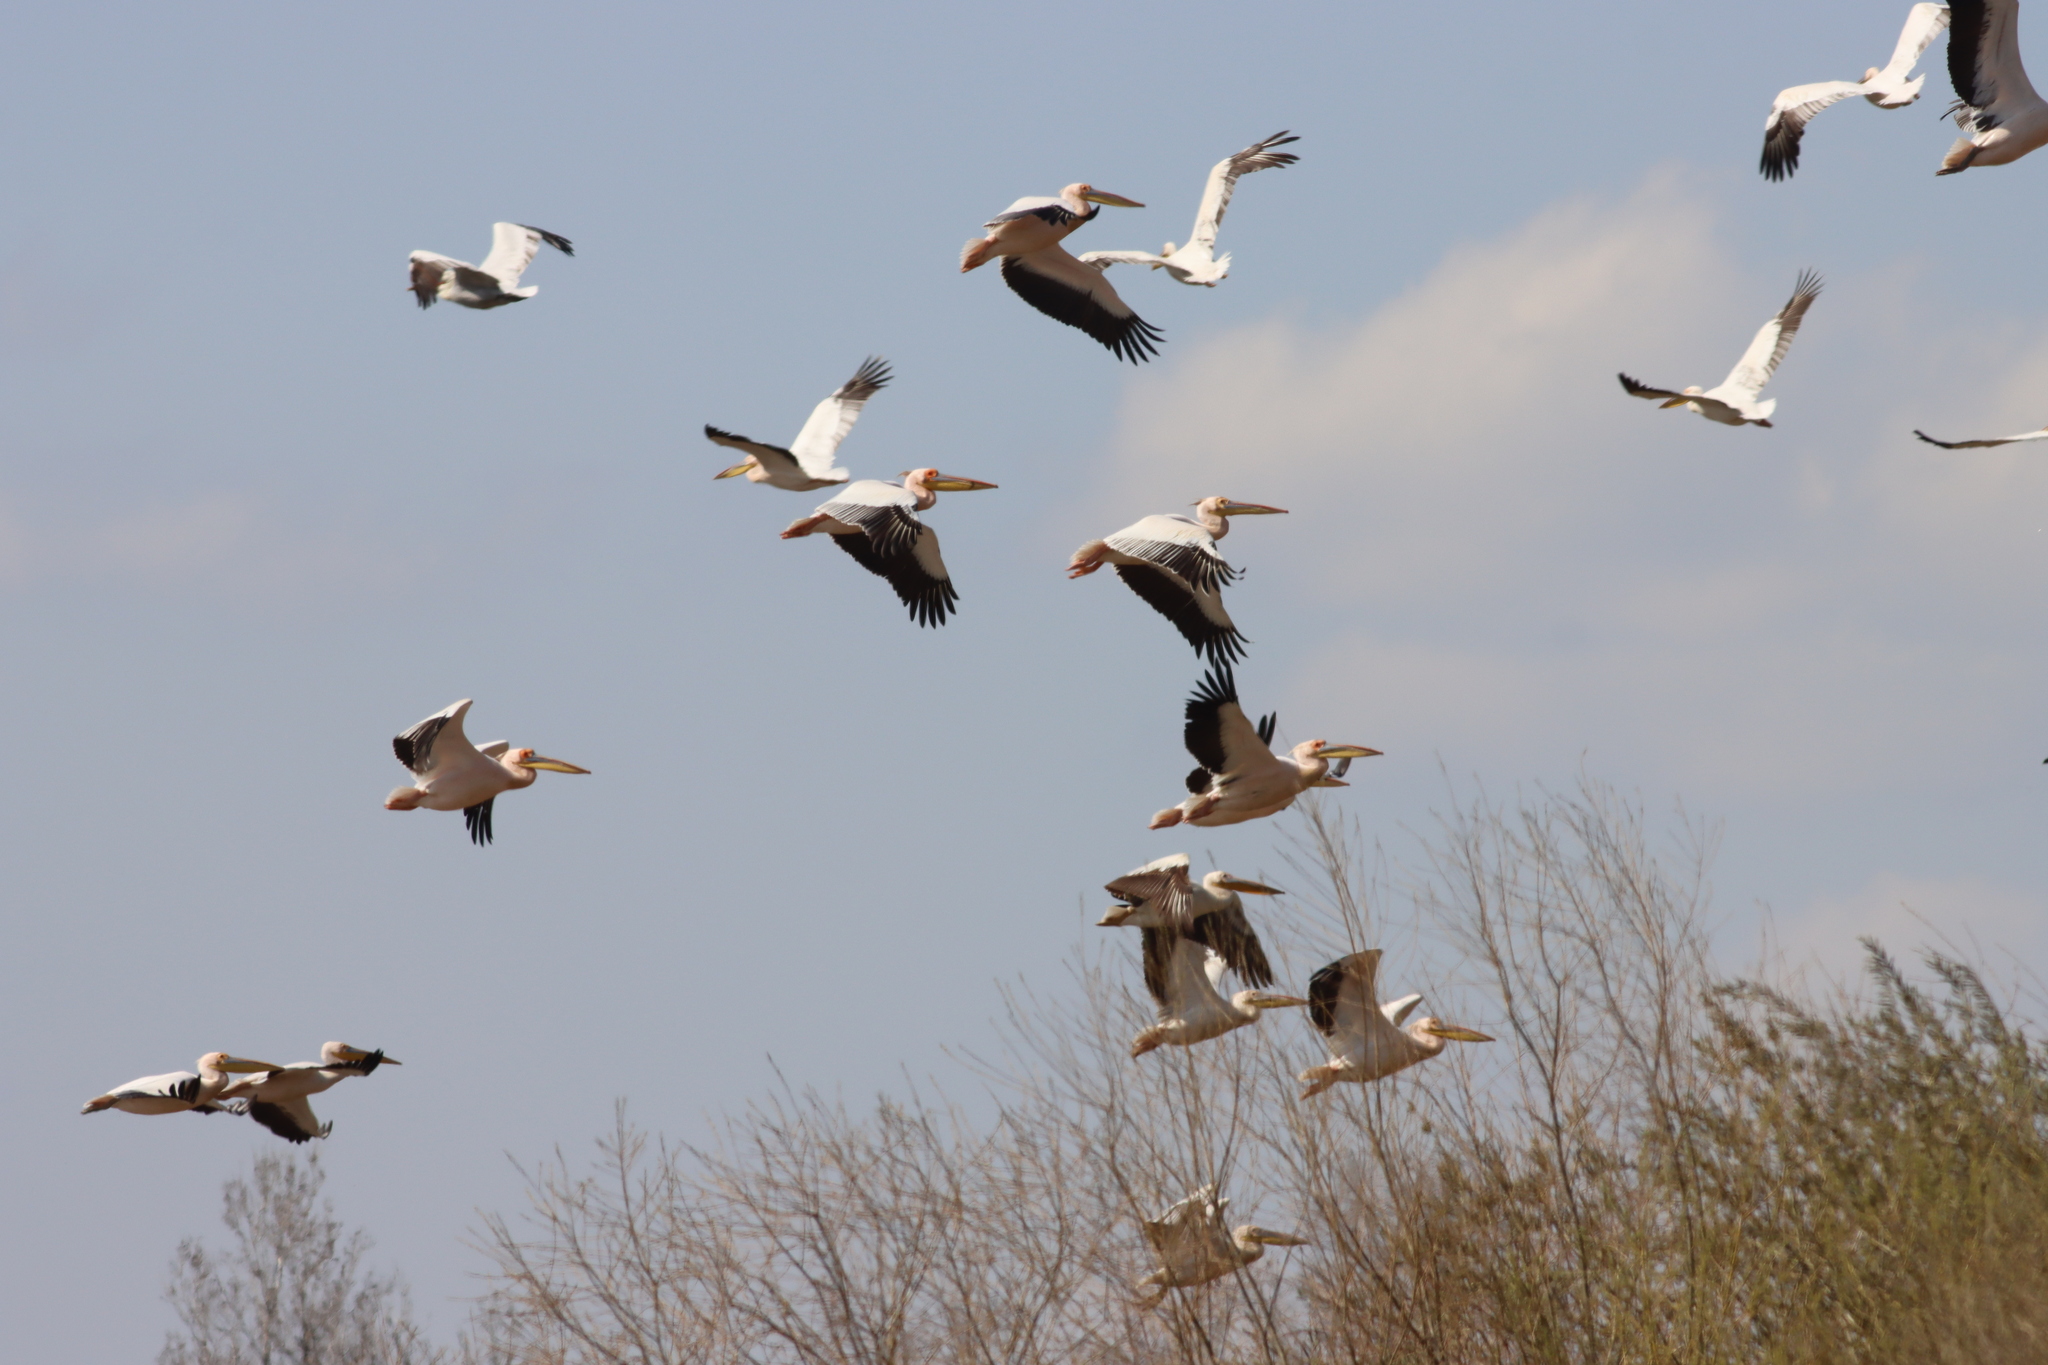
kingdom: Animalia
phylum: Chordata
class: Aves
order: Pelecaniformes
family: Pelecanidae
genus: Pelecanus
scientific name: Pelecanus onocrotalus
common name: Great white pelican
